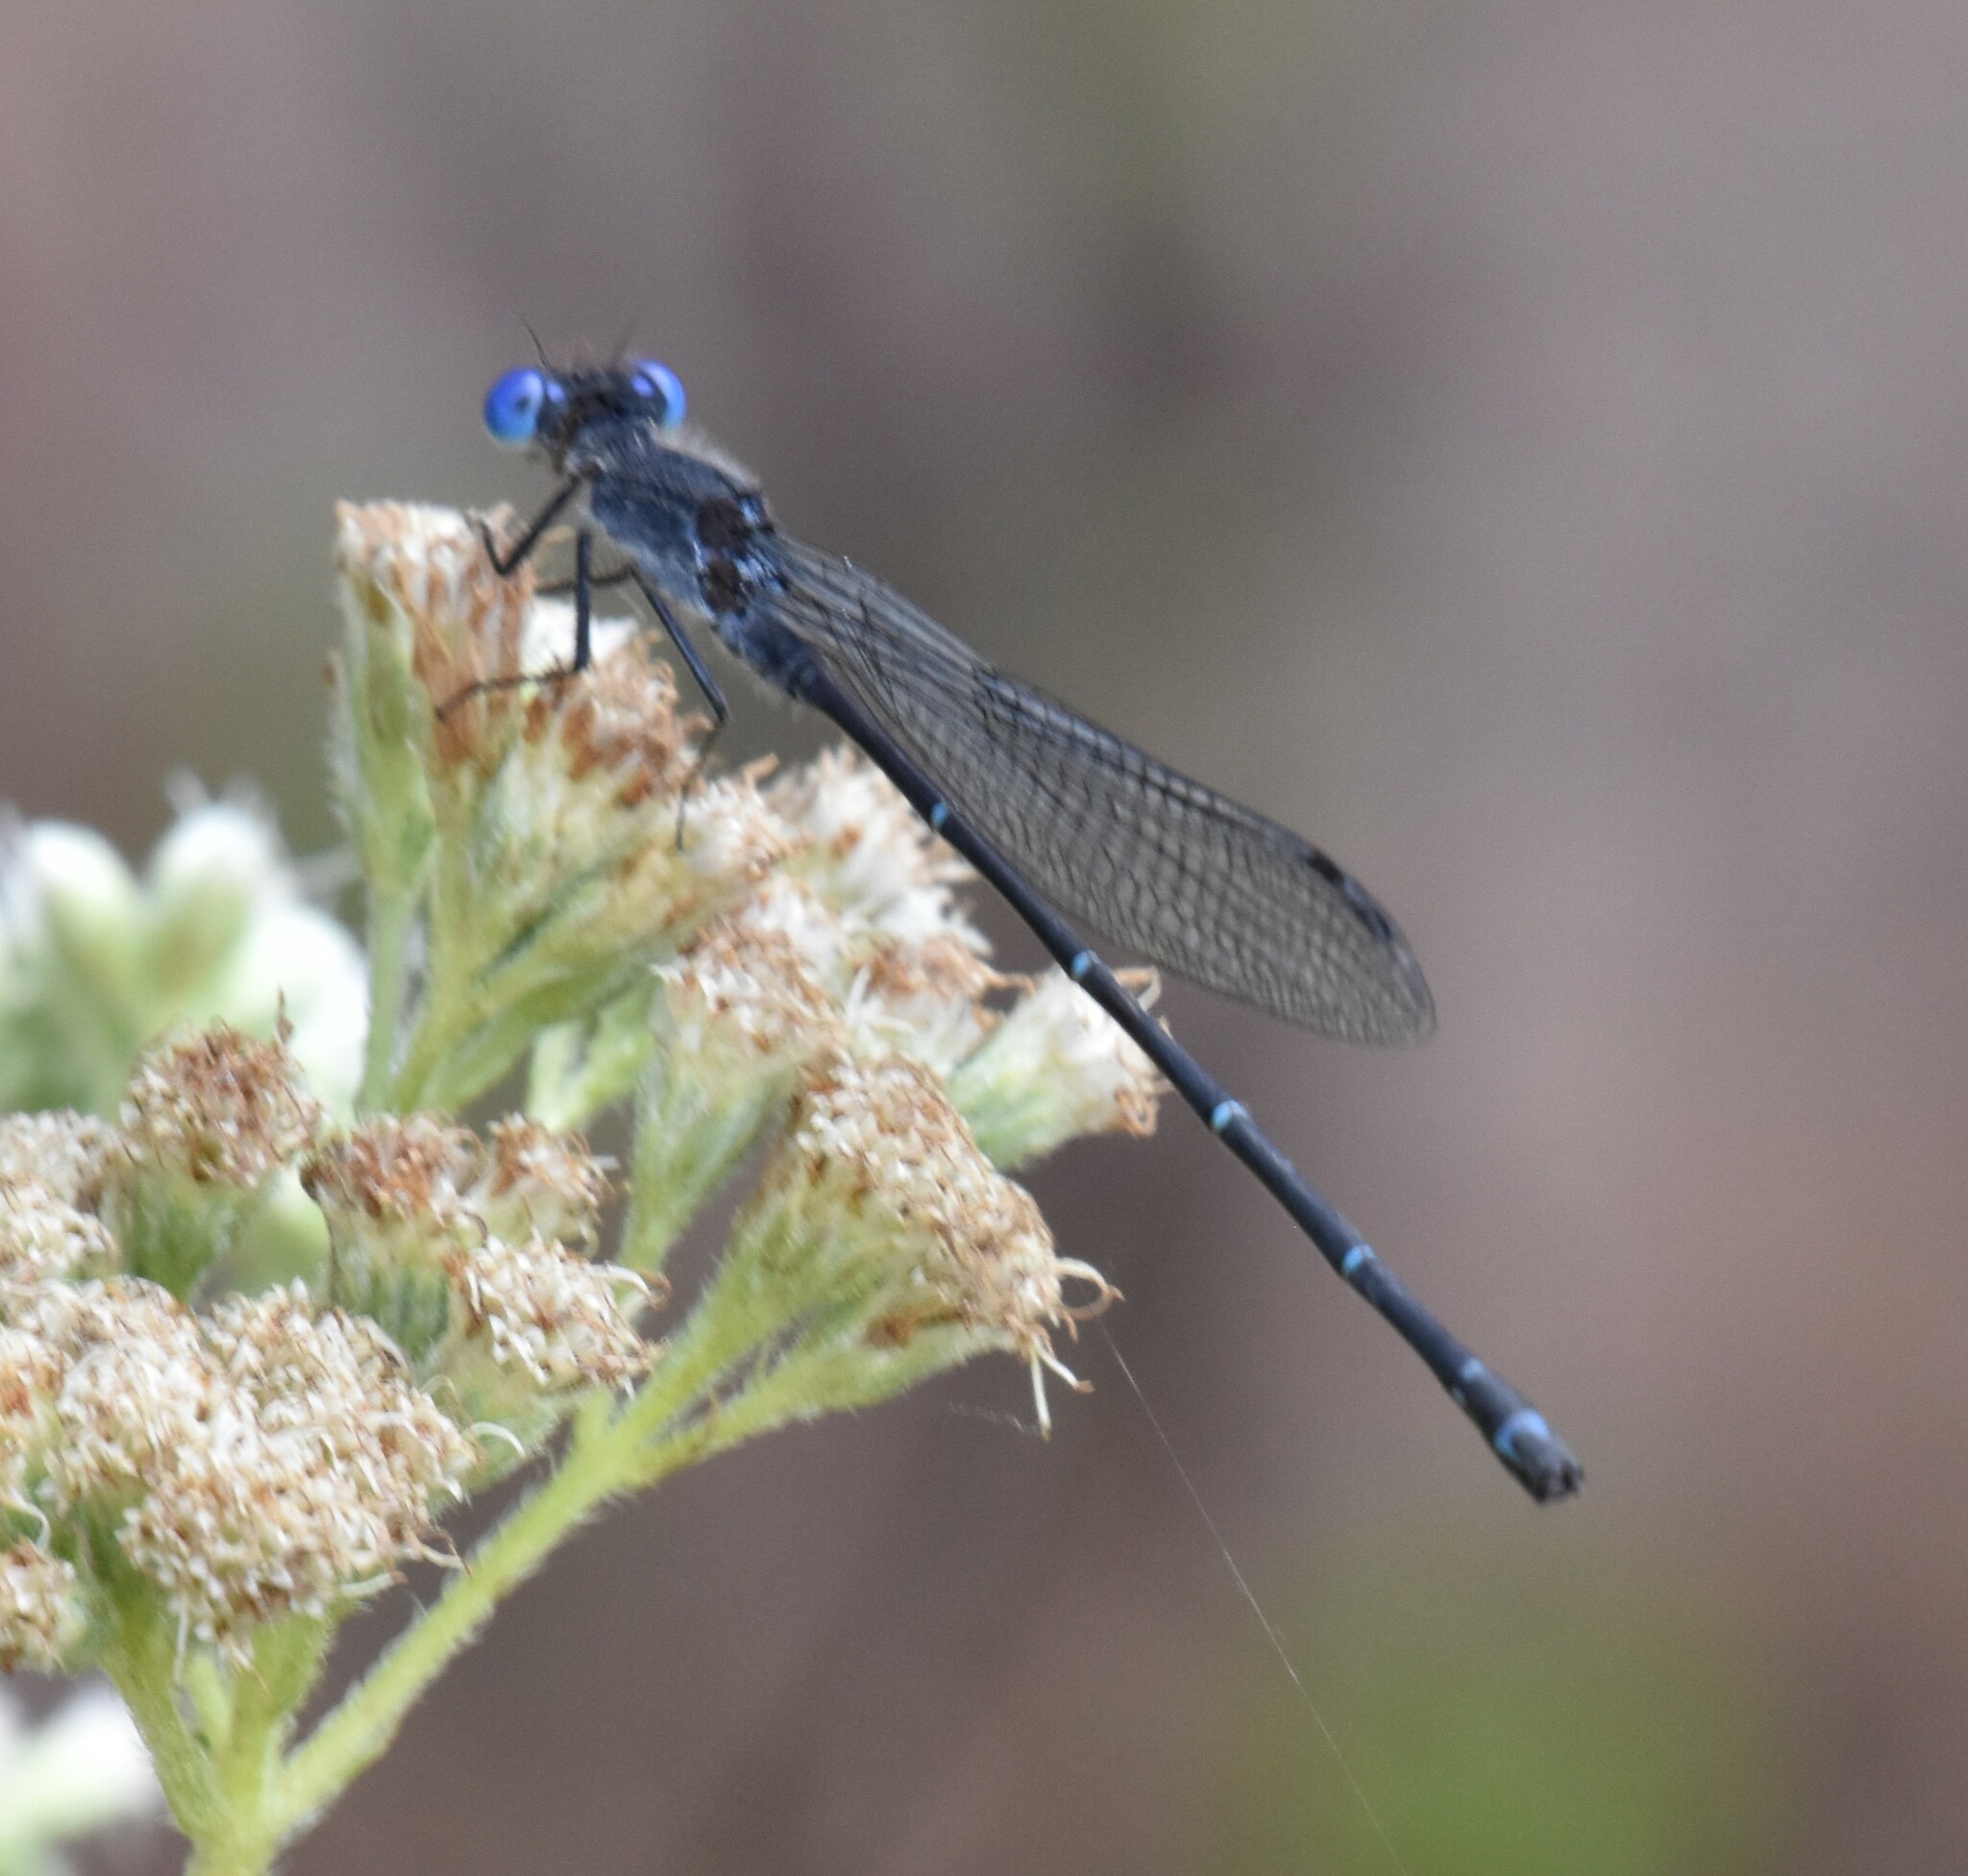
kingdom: Animalia
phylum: Arthropoda
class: Insecta
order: Odonata
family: Coenagrionidae
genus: Argia
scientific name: Argia translata
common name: Dusky dancer
